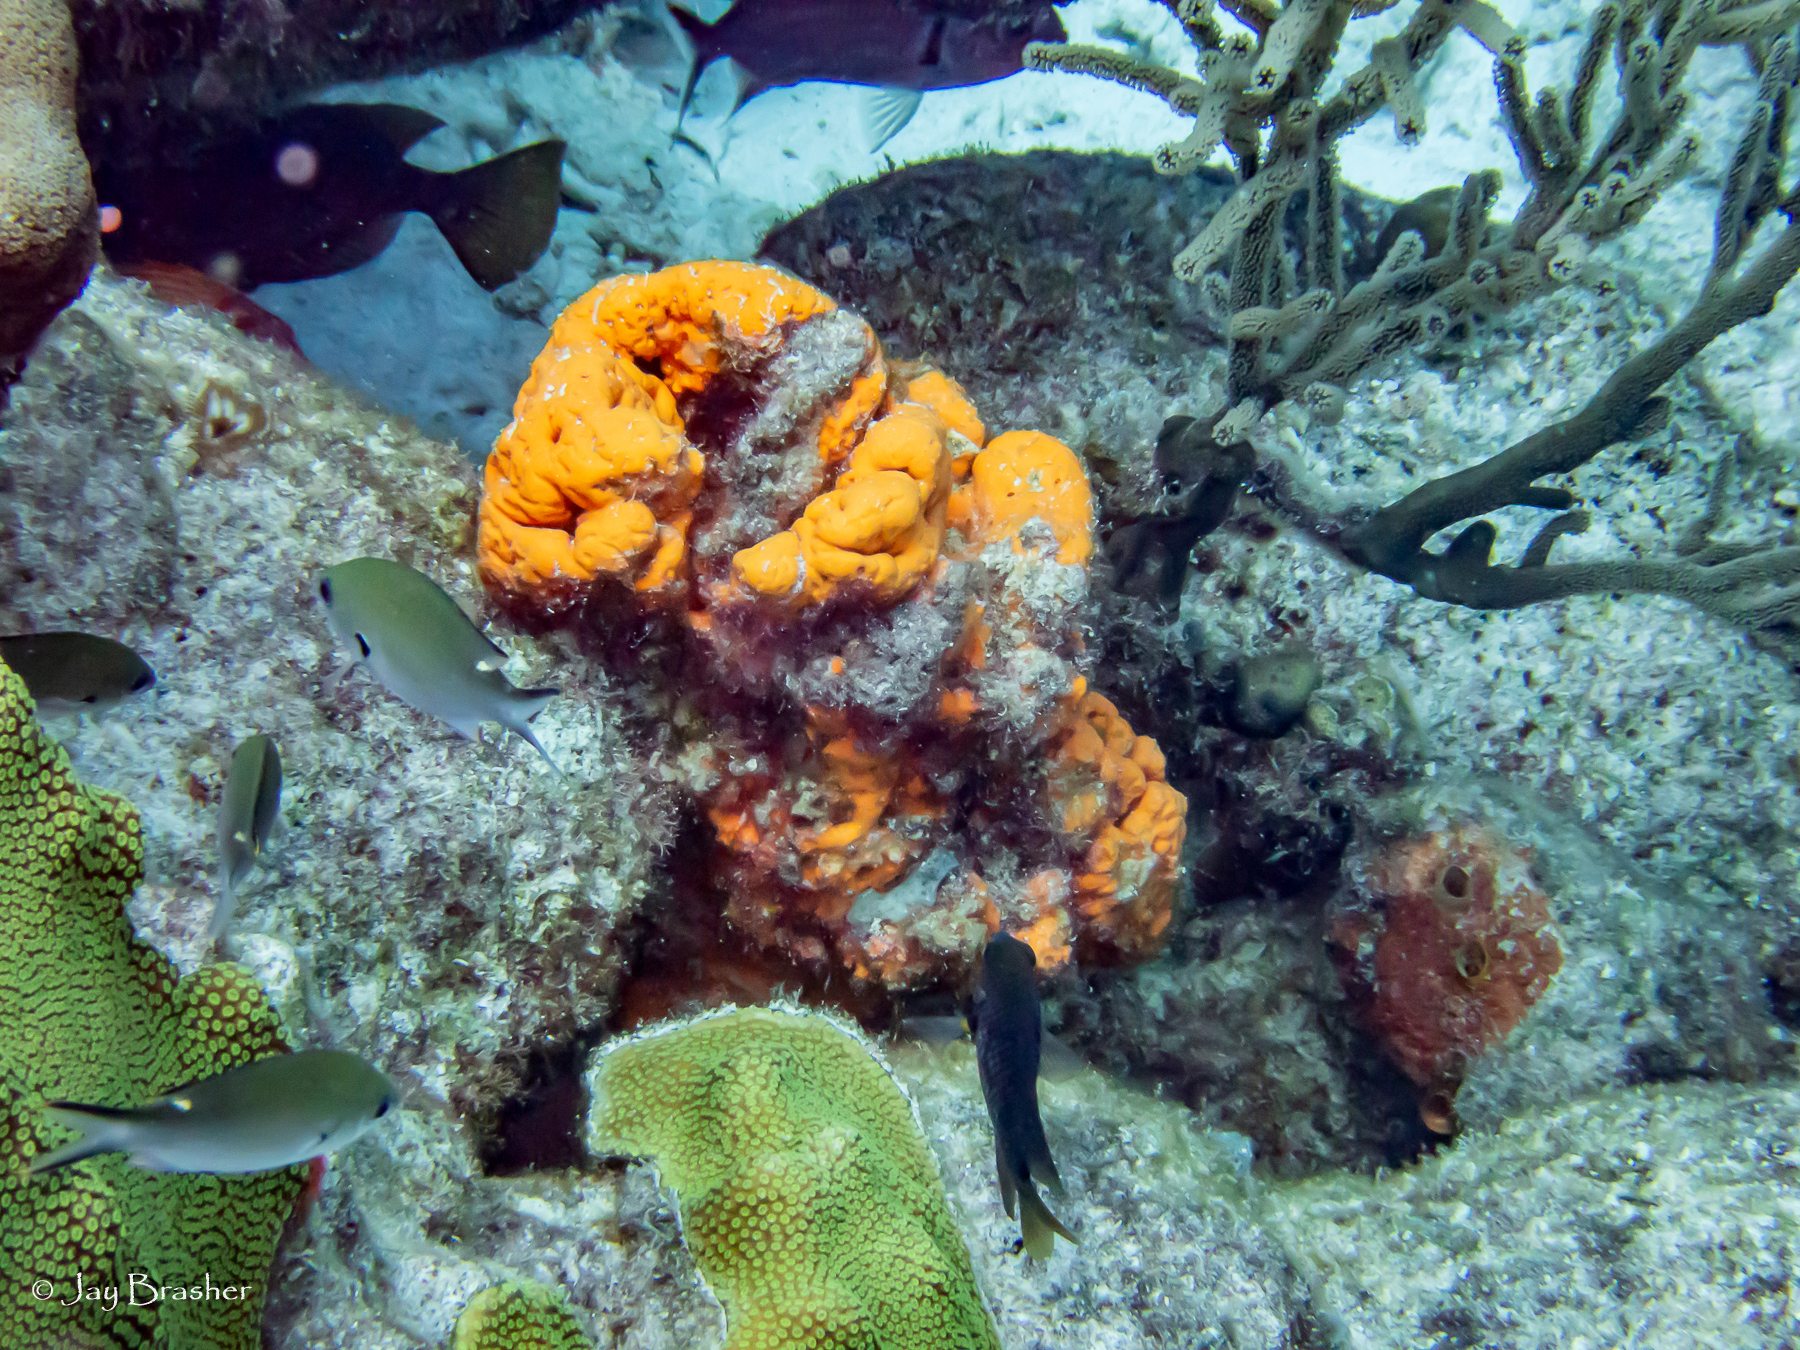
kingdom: Animalia
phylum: Porifera
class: Demospongiae
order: Agelasida
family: Agelasidae
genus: Agelas
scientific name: Agelas clathrodes
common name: Orange elephant ear sponge
